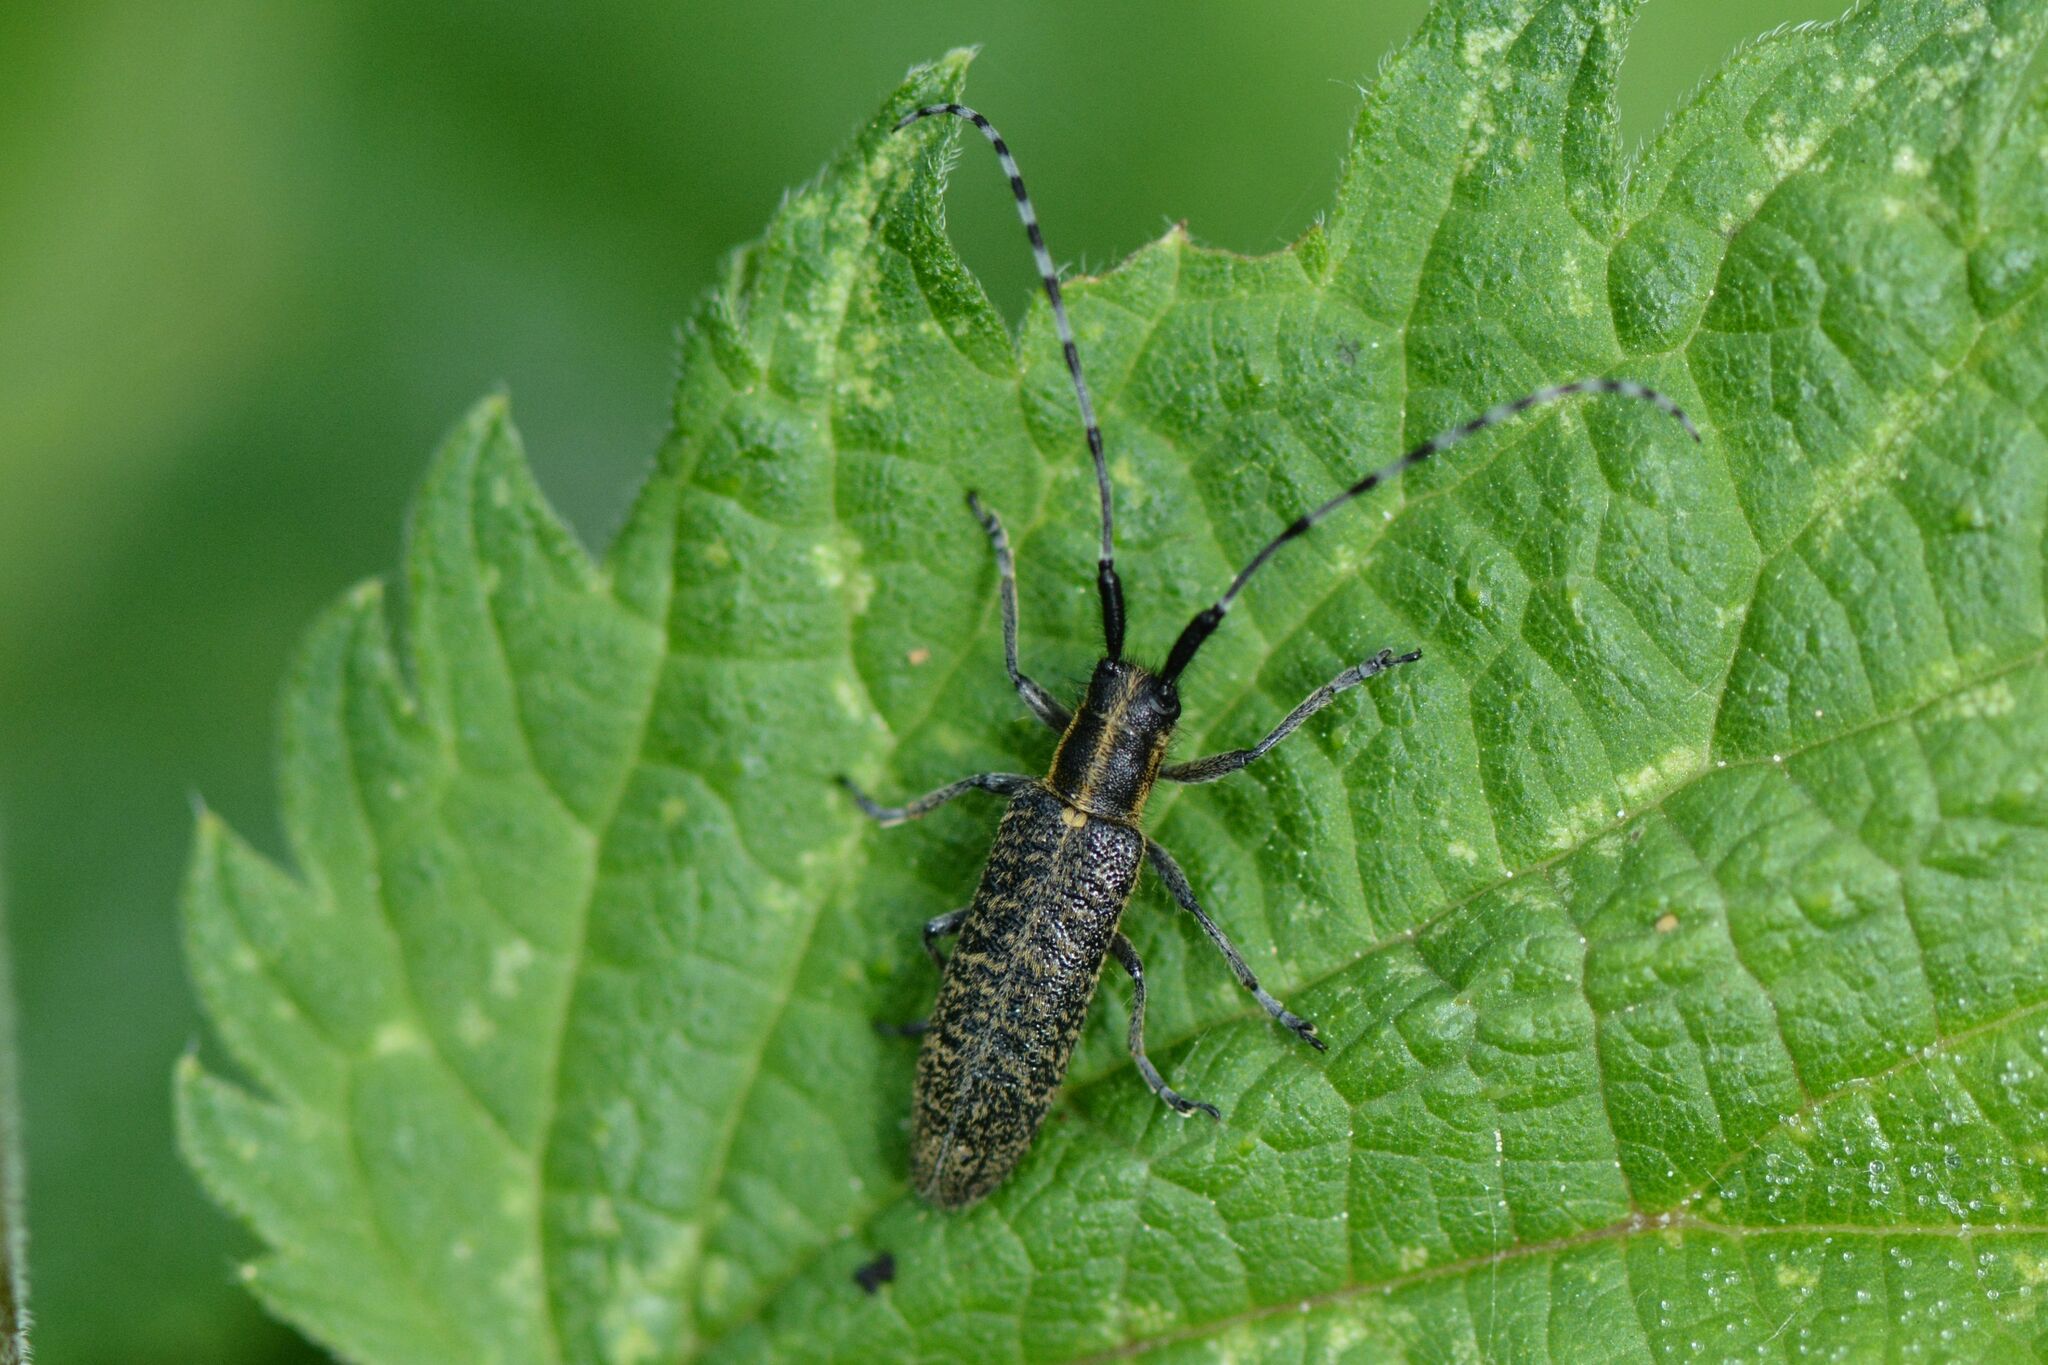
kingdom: Animalia
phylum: Arthropoda
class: Insecta
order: Coleoptera
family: Cerambycidae
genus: Agapanthia
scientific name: Agapanthia villosoviridescens
